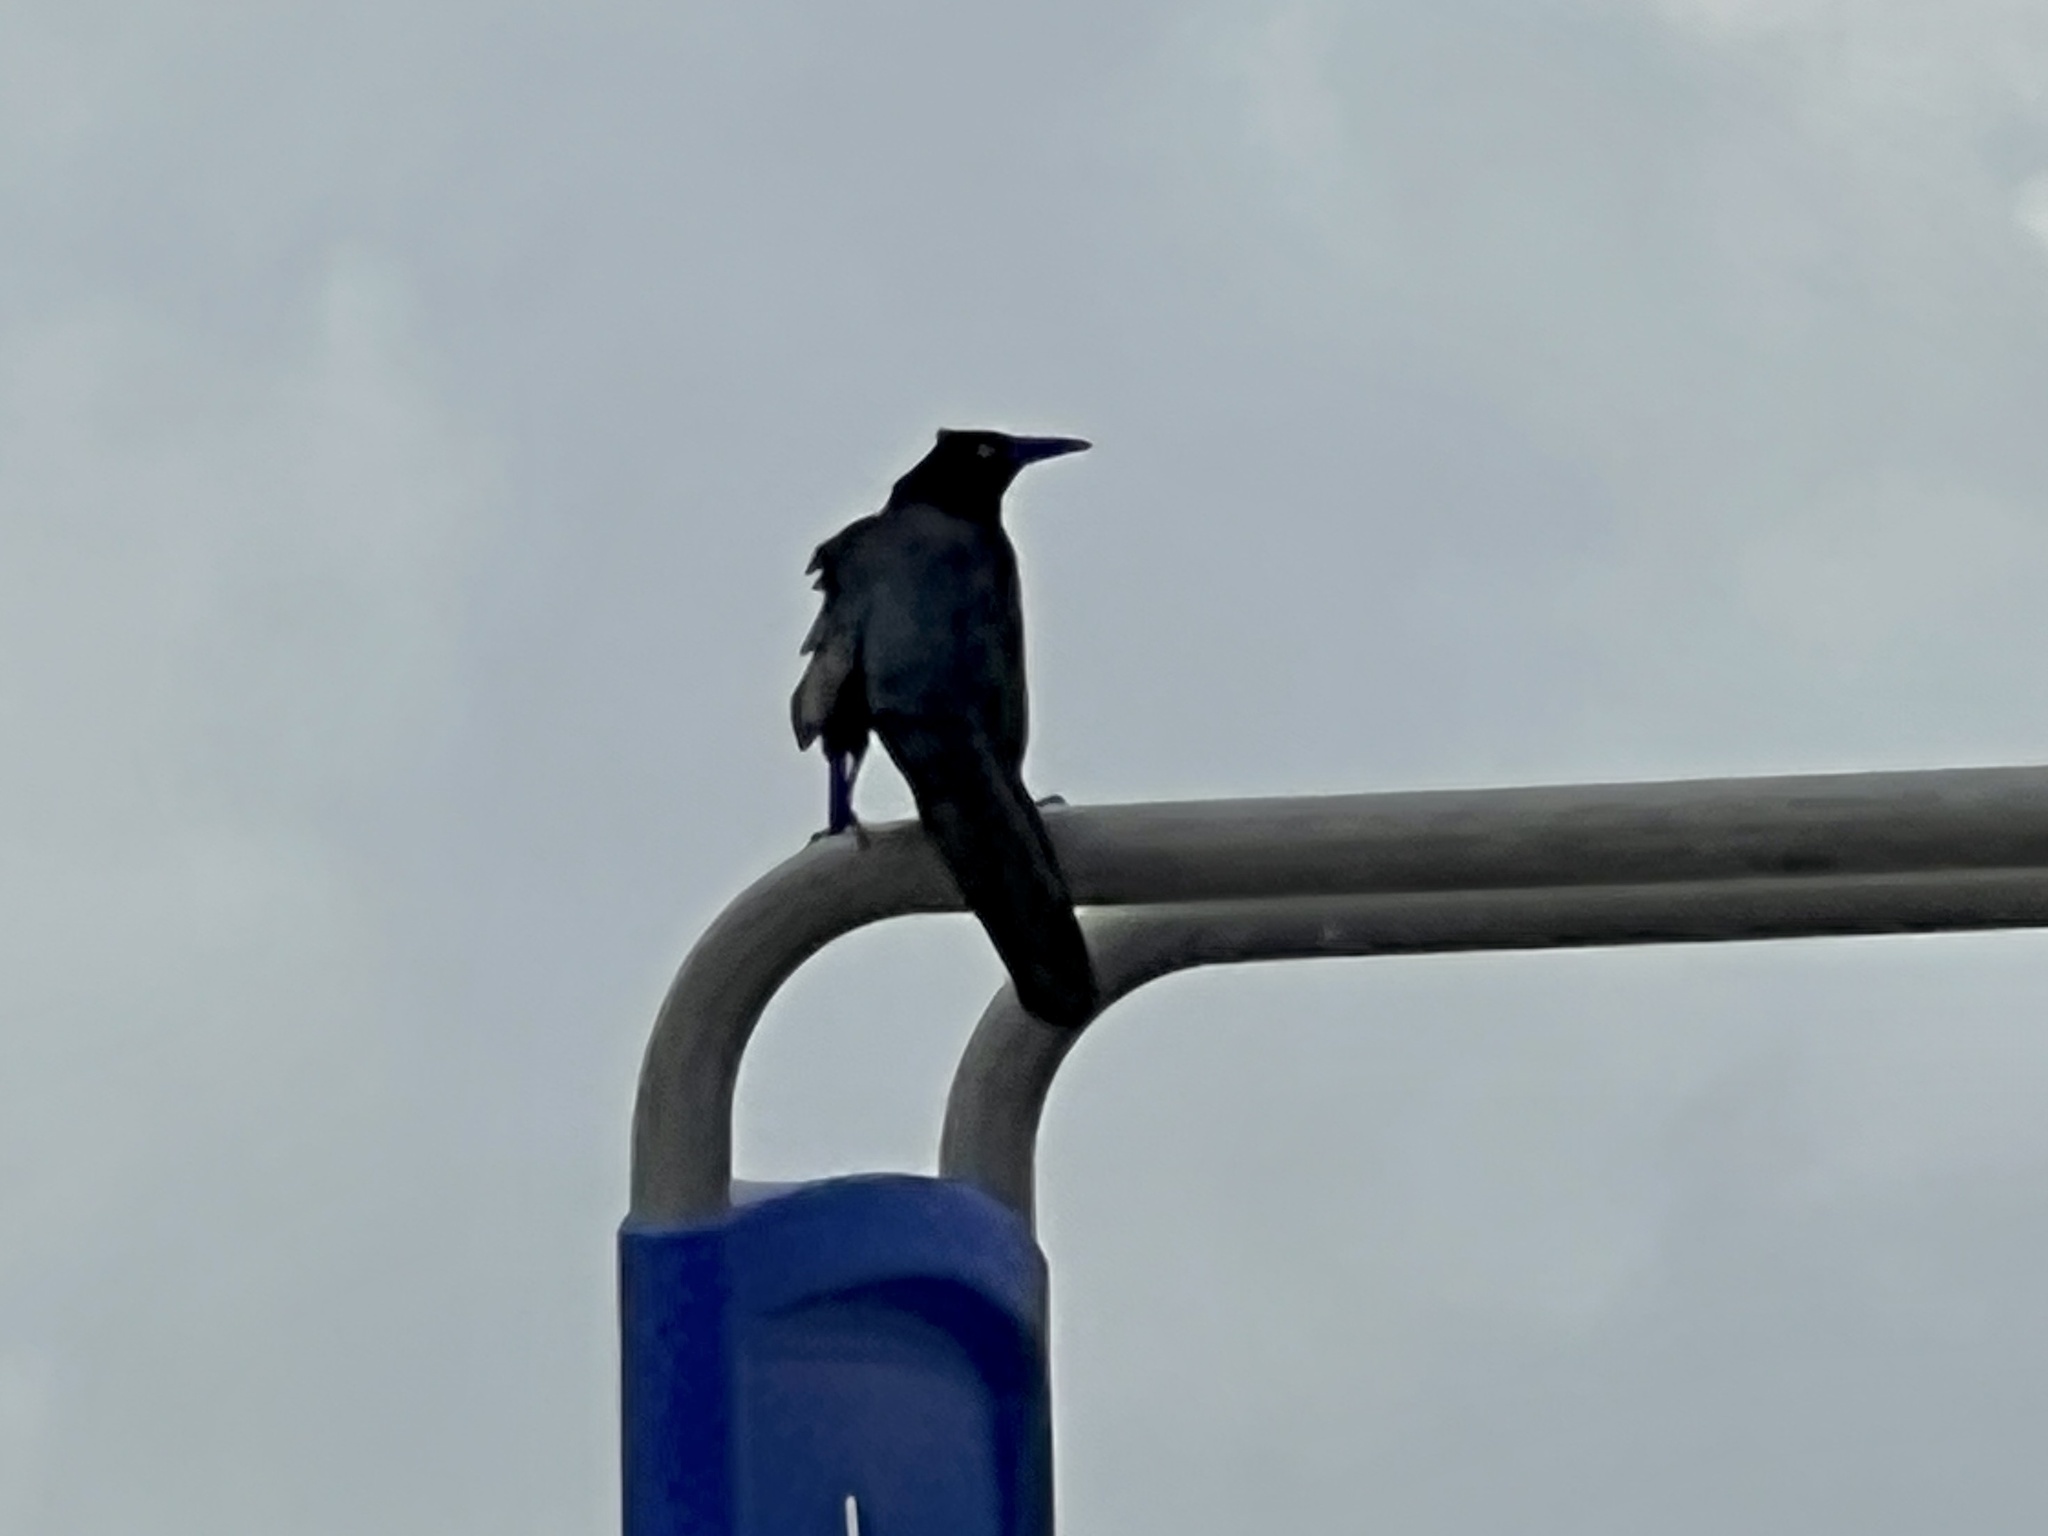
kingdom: Animalia
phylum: Chordata
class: Aves
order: Passeriformes
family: Icteridae
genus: Quiscalus
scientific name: Quiscalus mexicanus
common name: Great-tailed grackle
